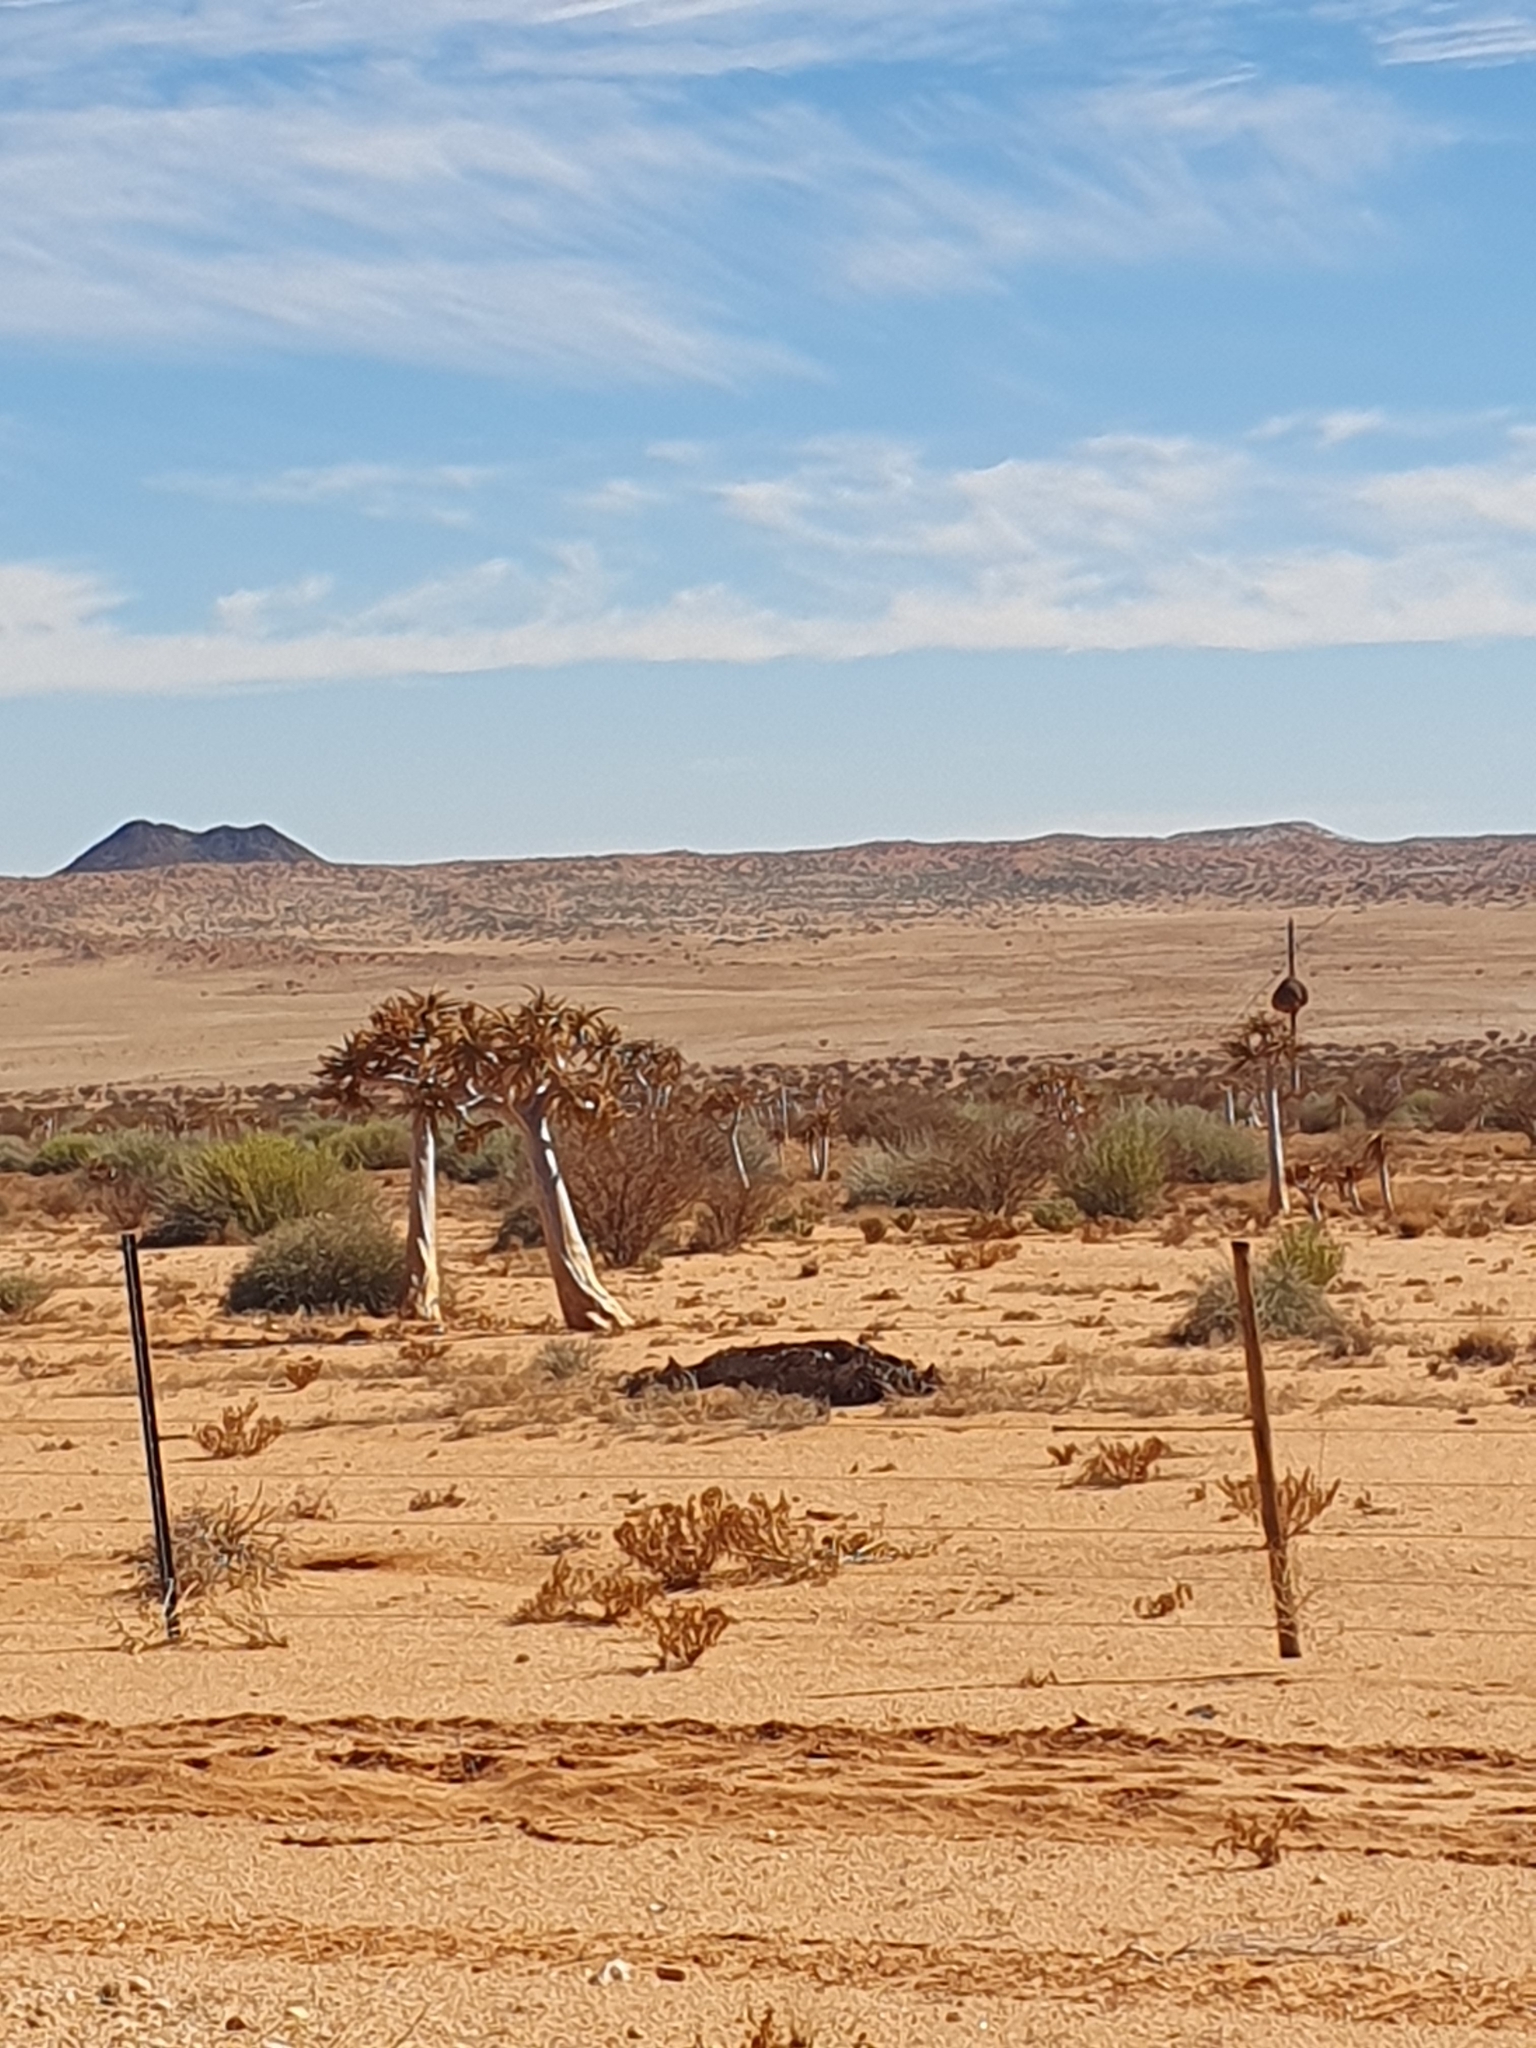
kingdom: Plantae
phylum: Tracheophyta
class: Liliopsida
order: Asparagales
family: Asphodelaceae
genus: Aloidendron
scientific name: Aloidendron dichotomum
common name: Quiver tree
